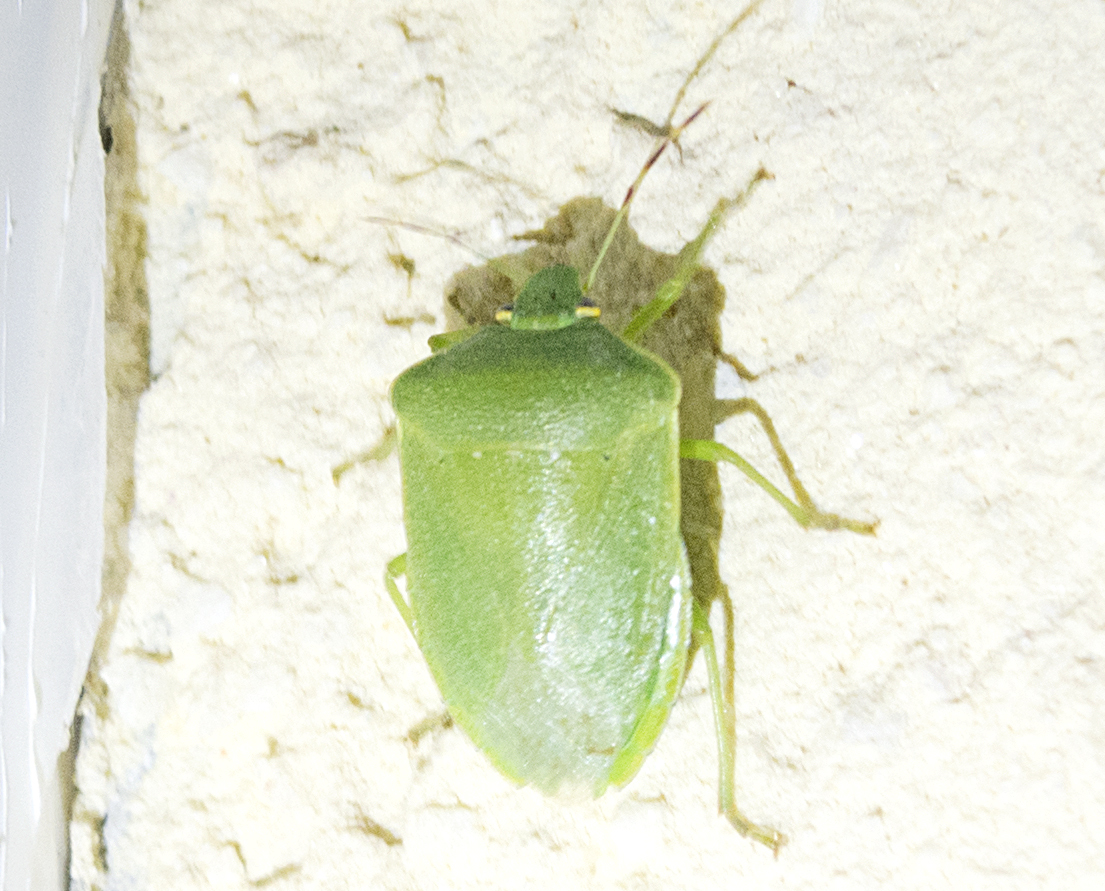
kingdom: Animalia
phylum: Arthropoda
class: Insecta
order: Hemiptera
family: Pentatomidae
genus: Nezara
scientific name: Nezara viridula
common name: Southern green stink bug
